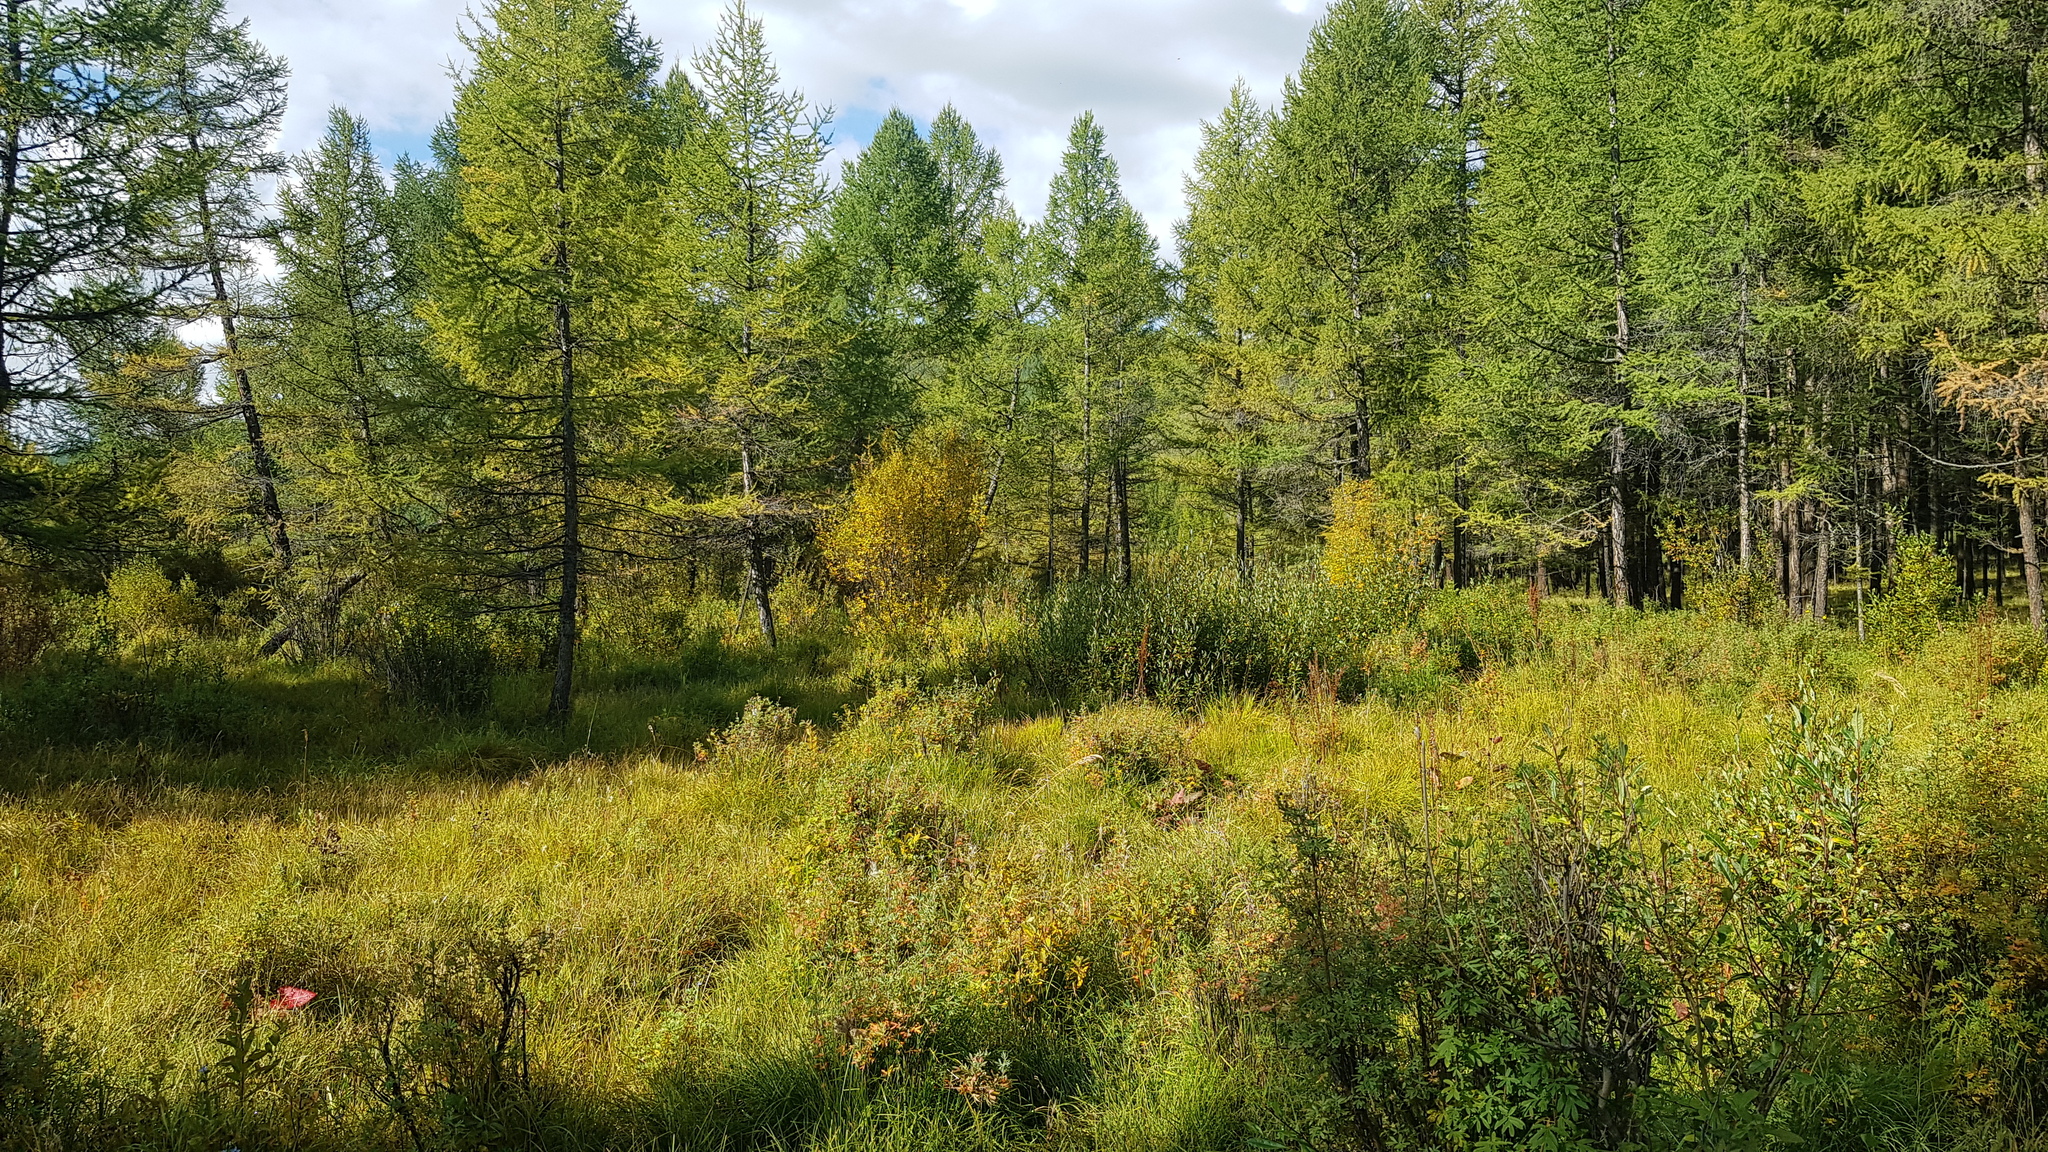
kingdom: Plantae
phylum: Tracheophyta
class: Pinopsida
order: Pinales
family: Pinaceae
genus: Larix
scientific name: Larix sibirica
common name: Siberian larch
